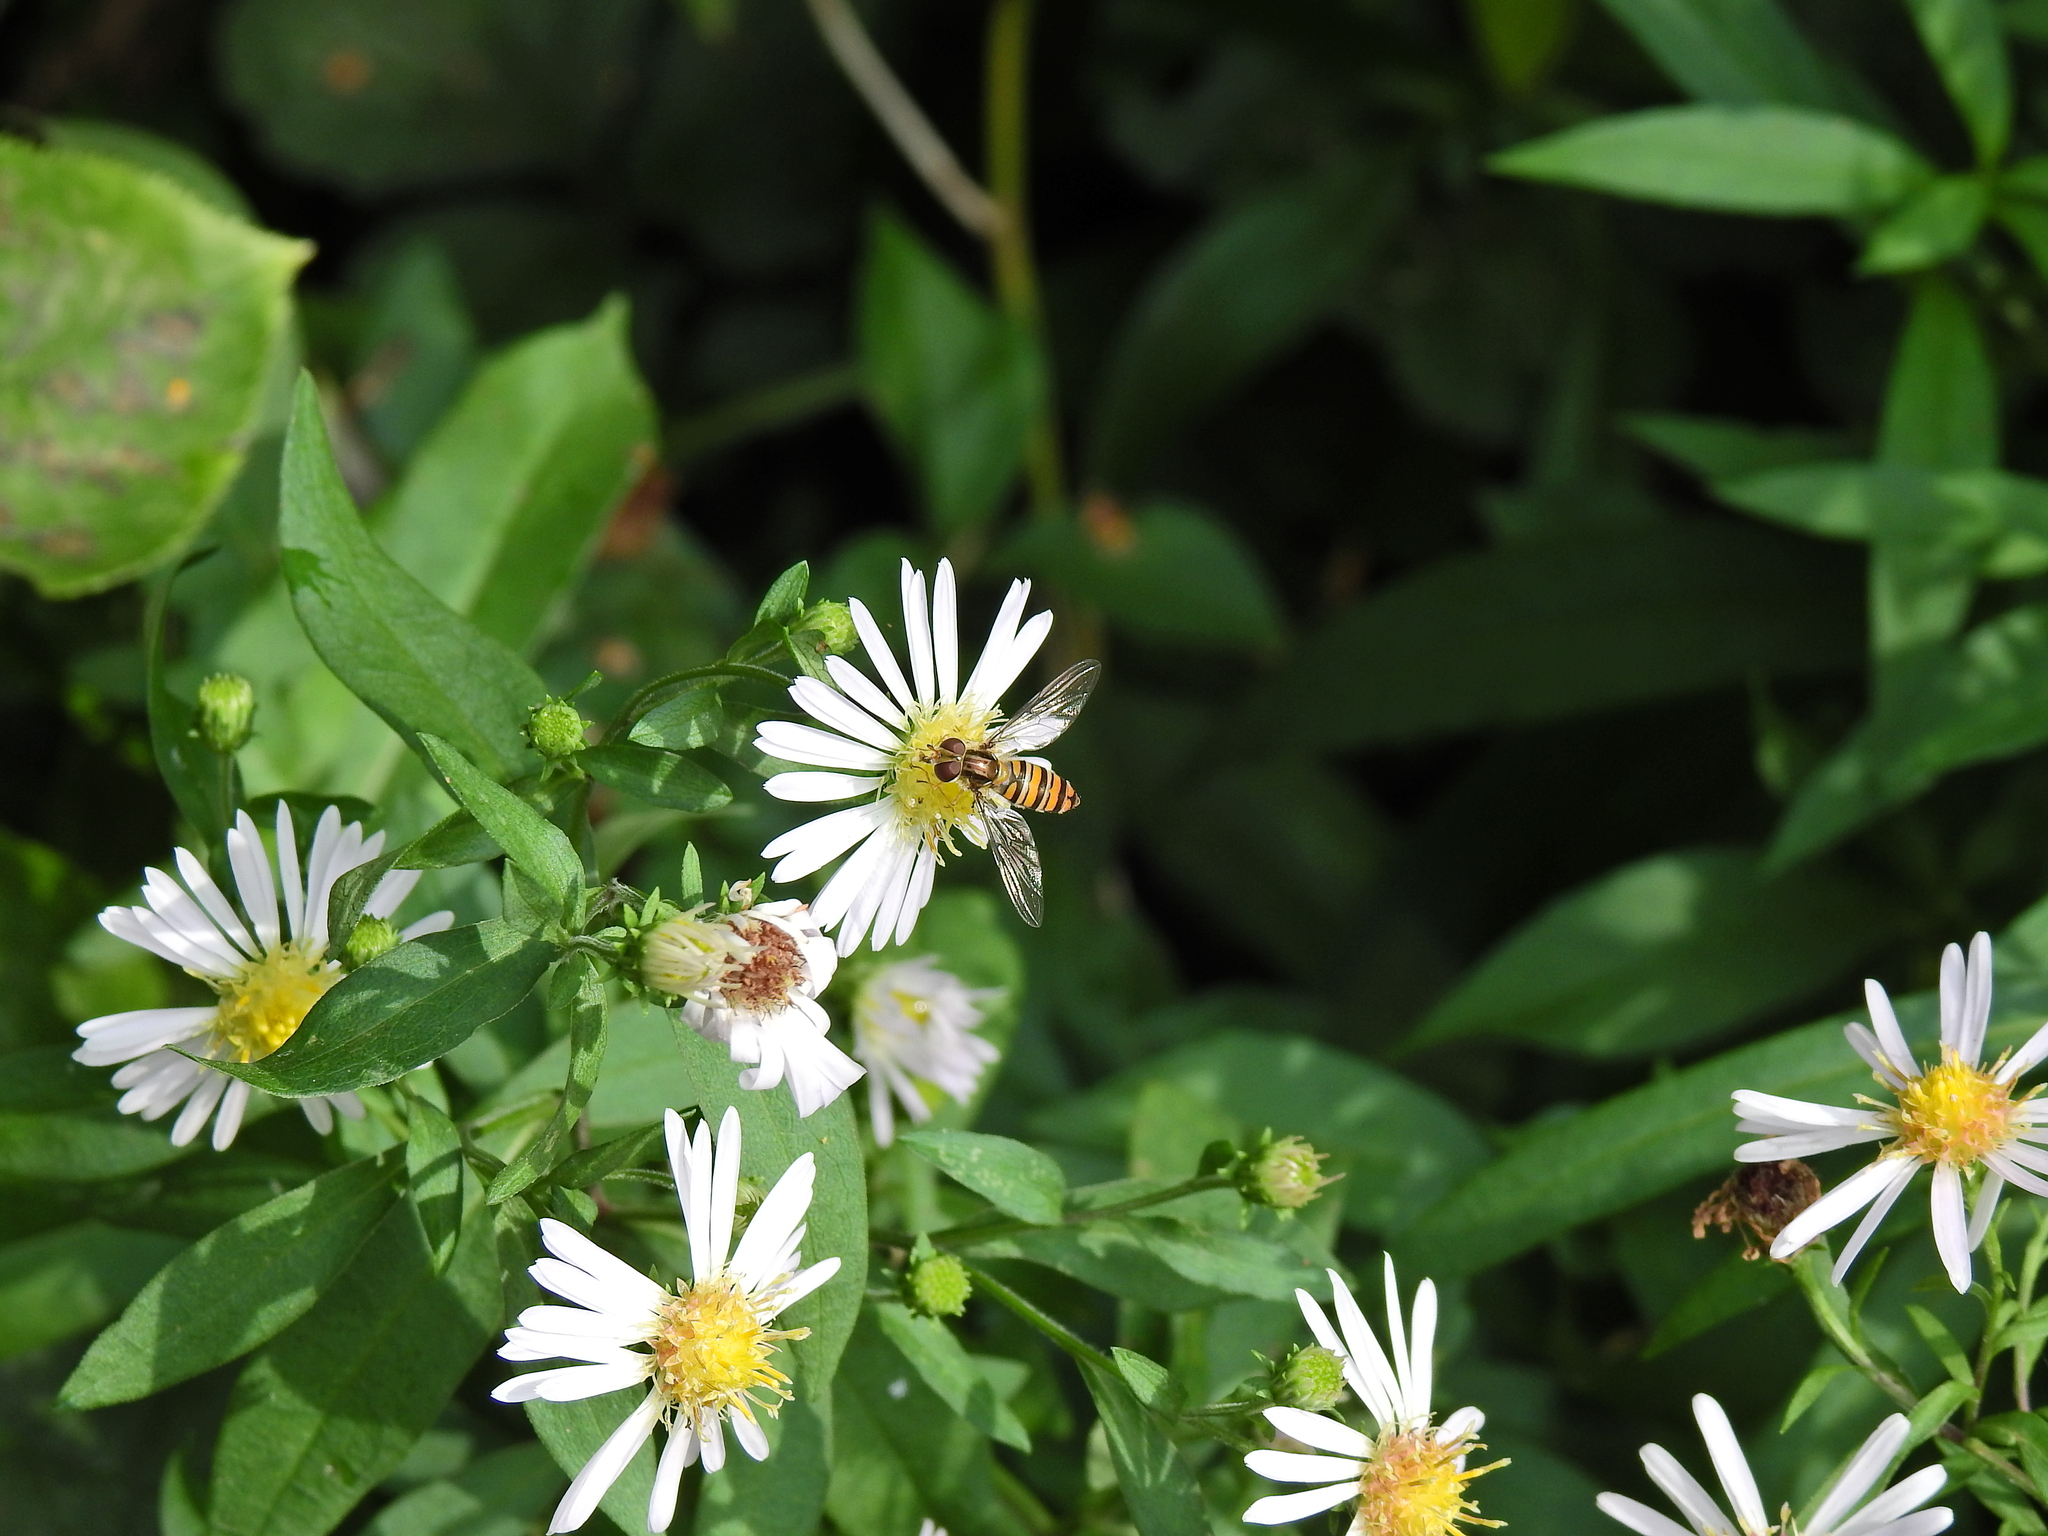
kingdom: Animalia
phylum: Arthropoda
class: Insecta
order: Diptera
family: Syrphidae
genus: Episyrphus
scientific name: Episyrphus balteatus
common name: Marmalade hoverfly
